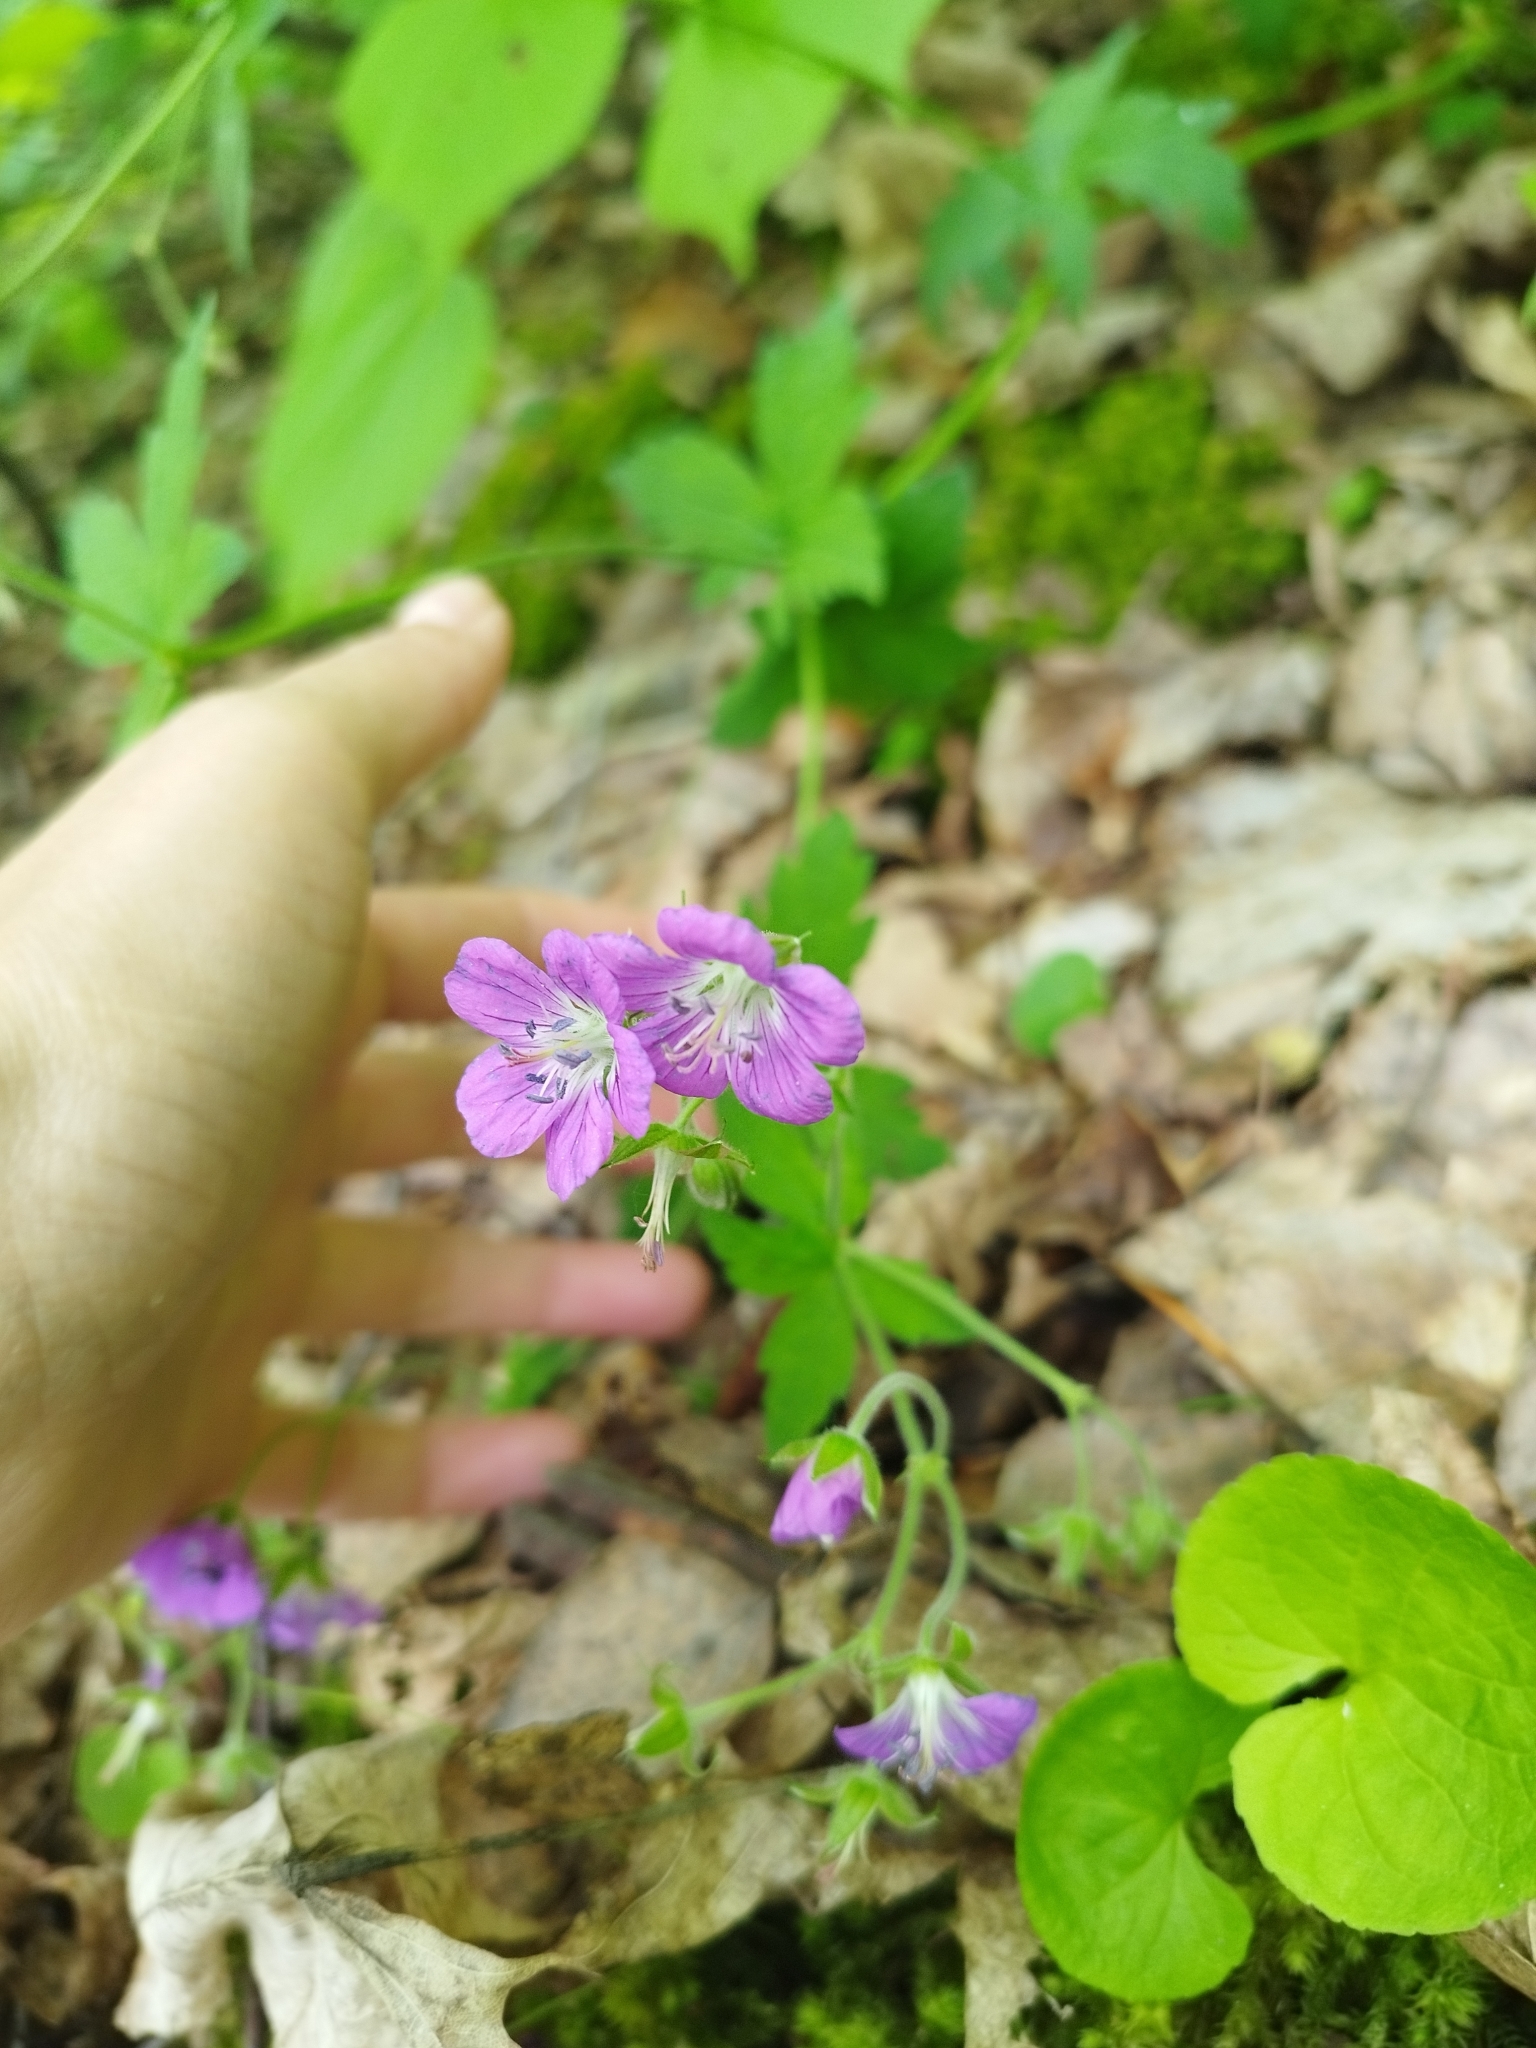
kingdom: Plantae
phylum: Tracheophyta
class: Magnoliopsida
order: Geraniales
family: Geraniaceae
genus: Geranium
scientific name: Geranium sylvaticum
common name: Wood crane's-bill
